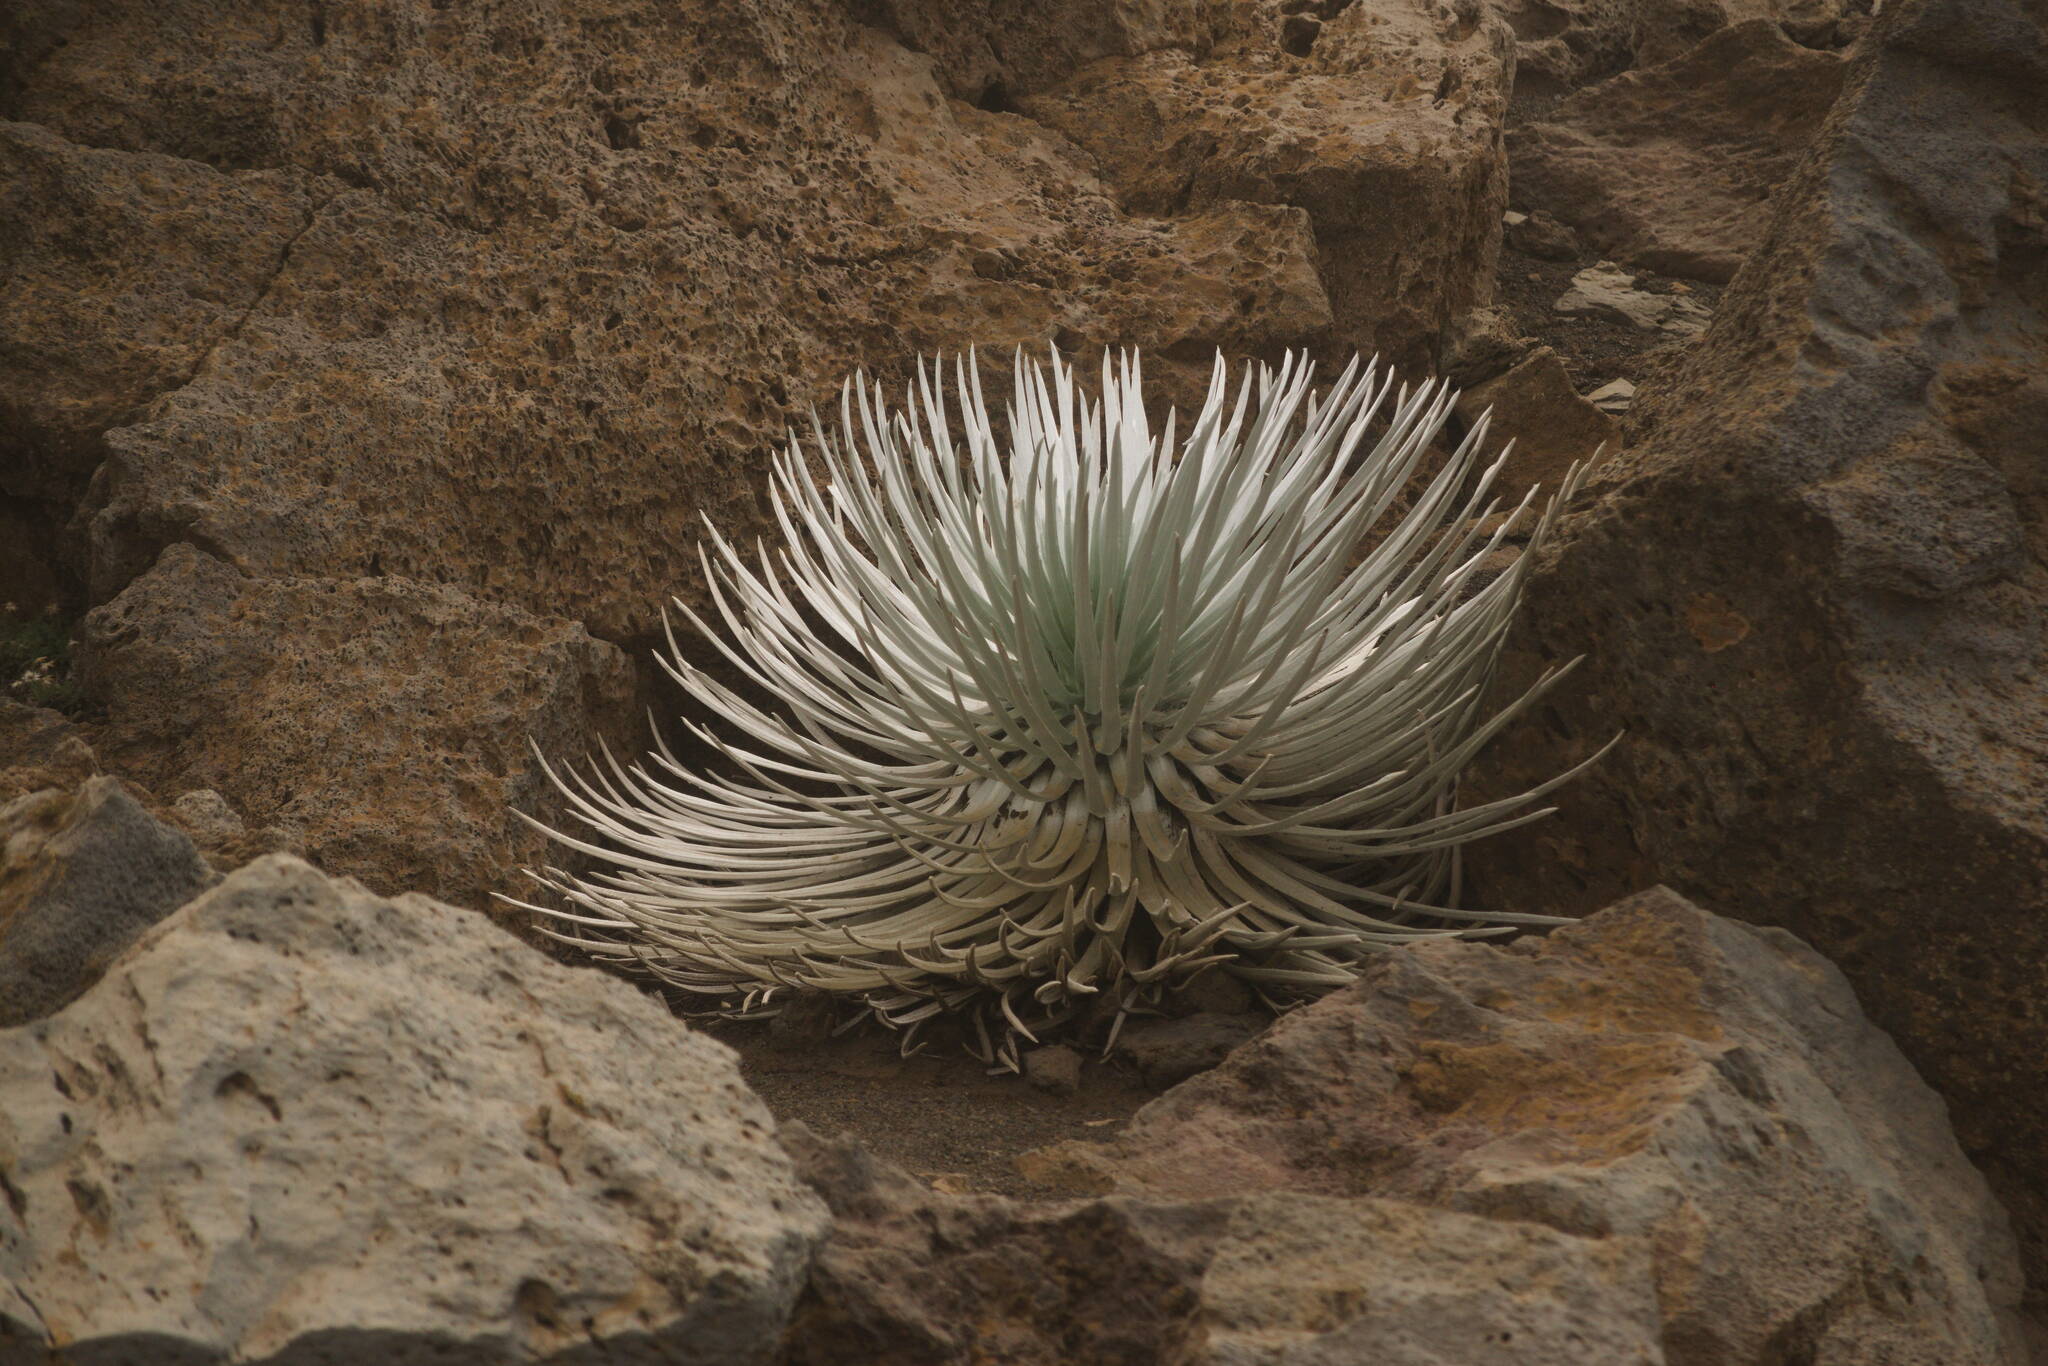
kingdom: Plantae
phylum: Tracheophyta
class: Magnoliopsida
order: Asterales
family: Asteraceae
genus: Argyroxiphium
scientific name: Argyroxiphium sandwicense
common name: Silversword
